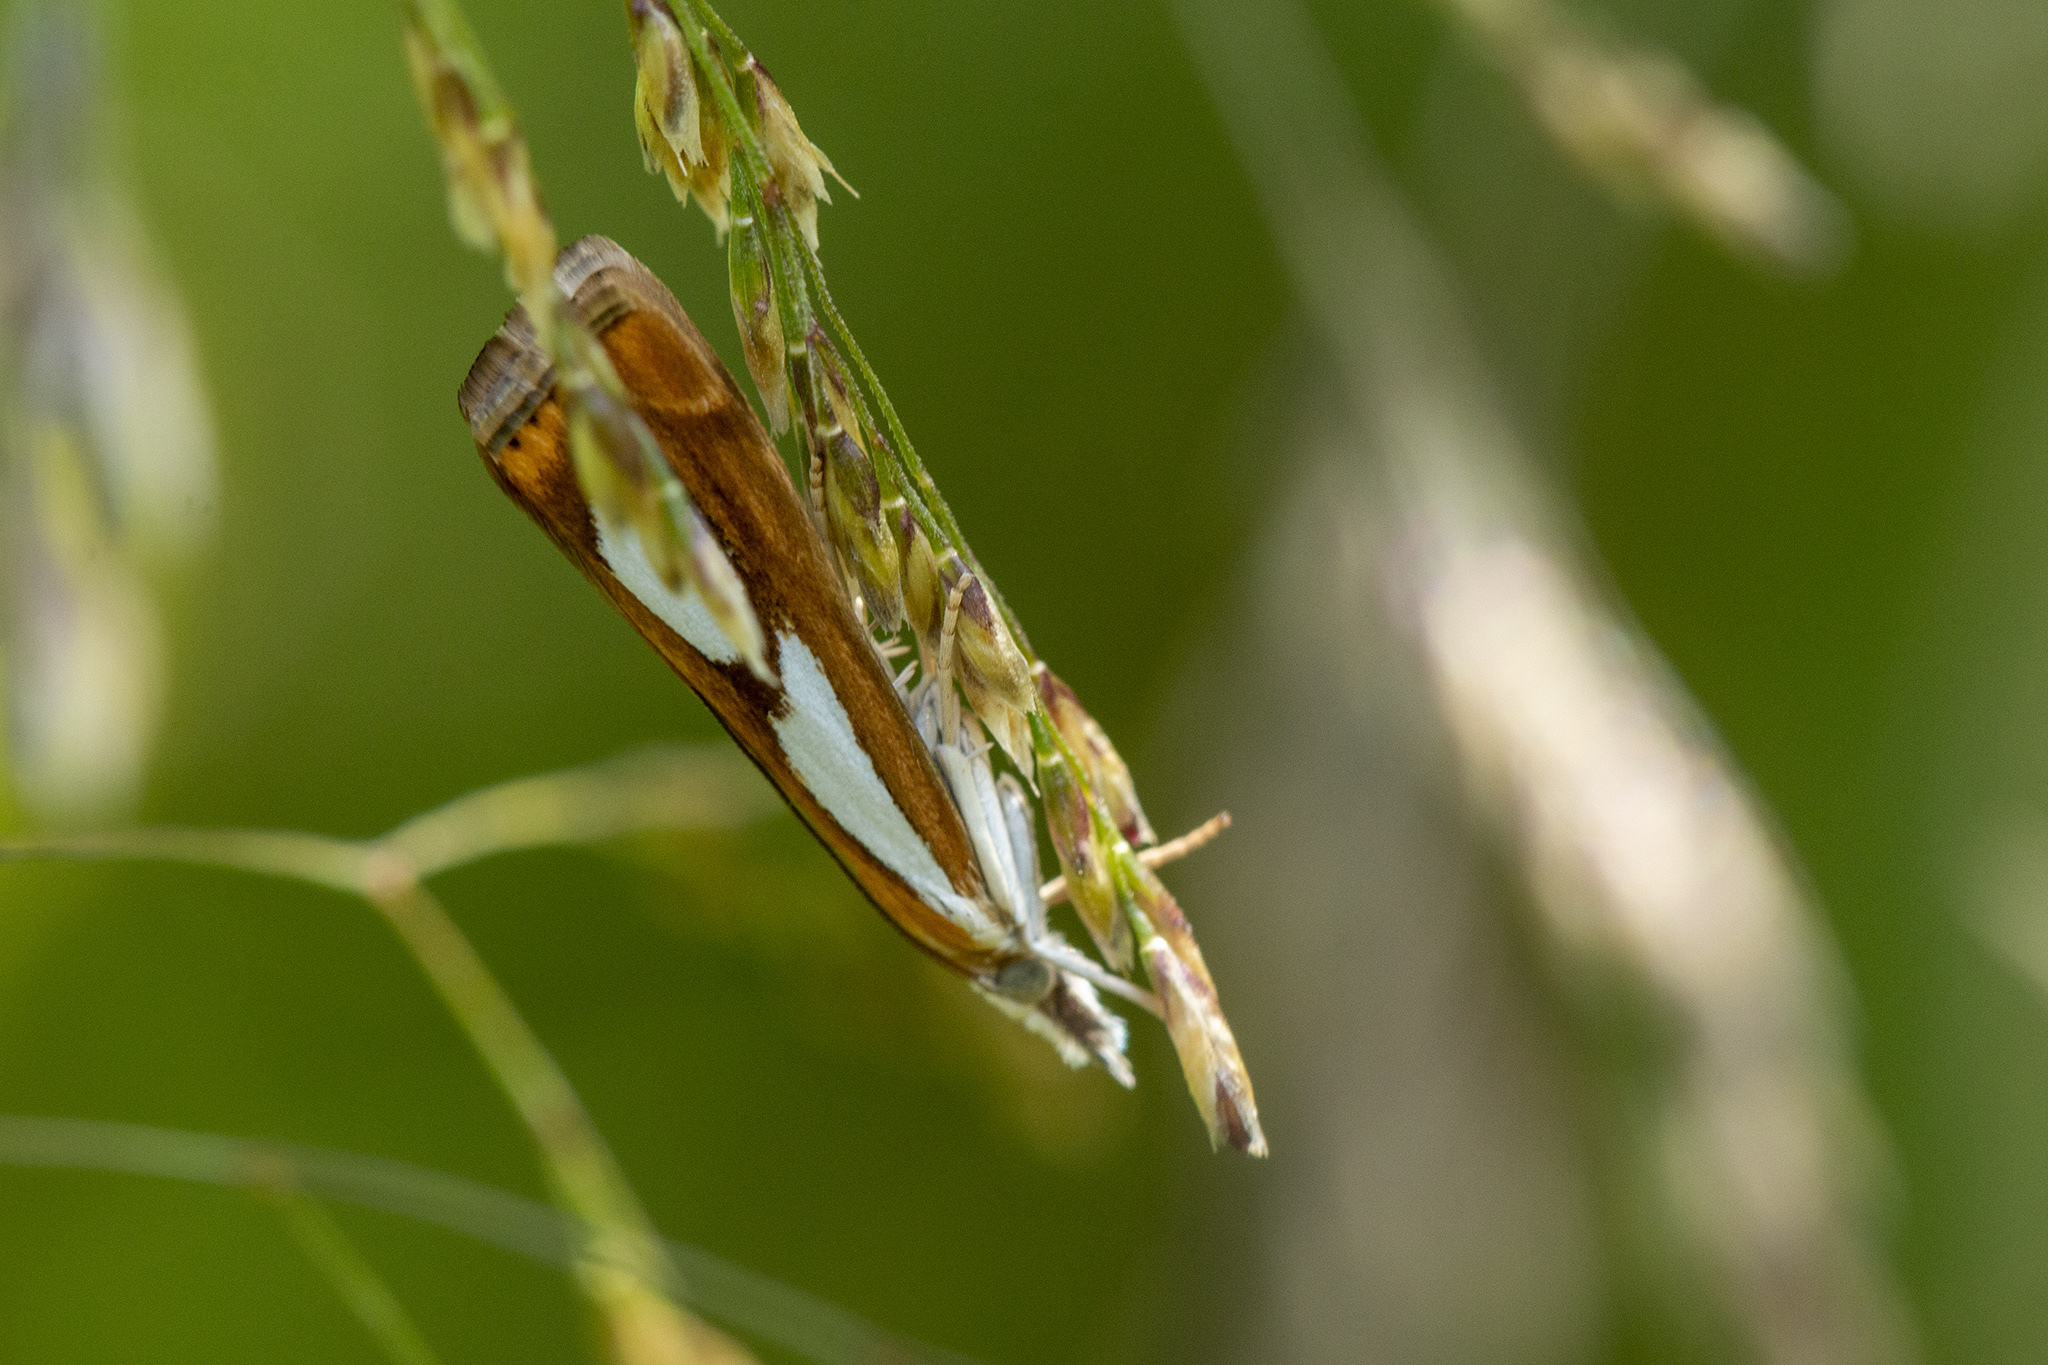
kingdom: Animalia
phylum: Arthropoda
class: Insecta
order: Lepidoptera
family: Crambidae
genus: Catoptria
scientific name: Catoptria pinella
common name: Pearl grass-veneer
